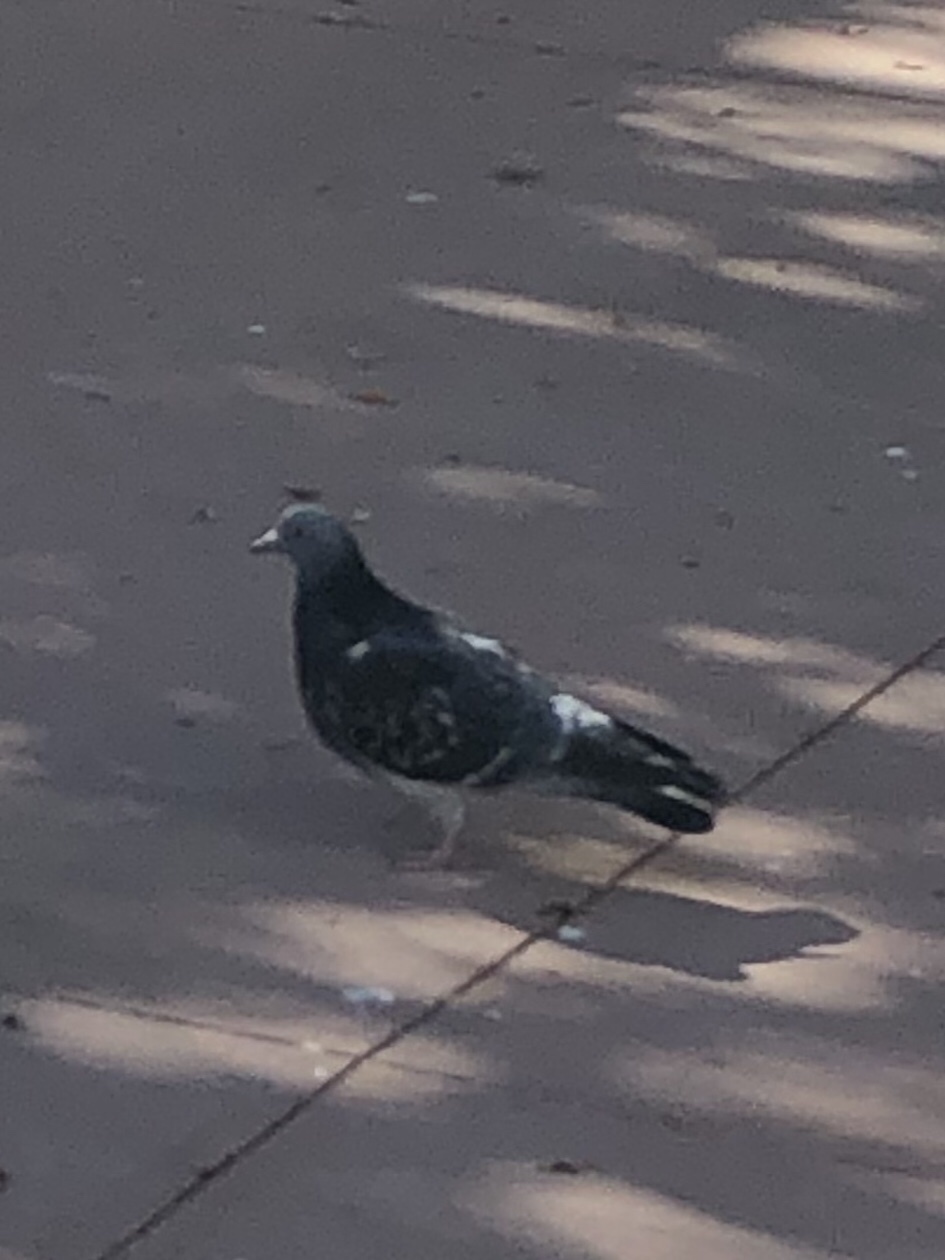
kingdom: Animalia
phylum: Chordata
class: Aves
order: Columbiformes
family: Columbidae
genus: Columba
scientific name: Columba livia
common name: Rock pigeon
